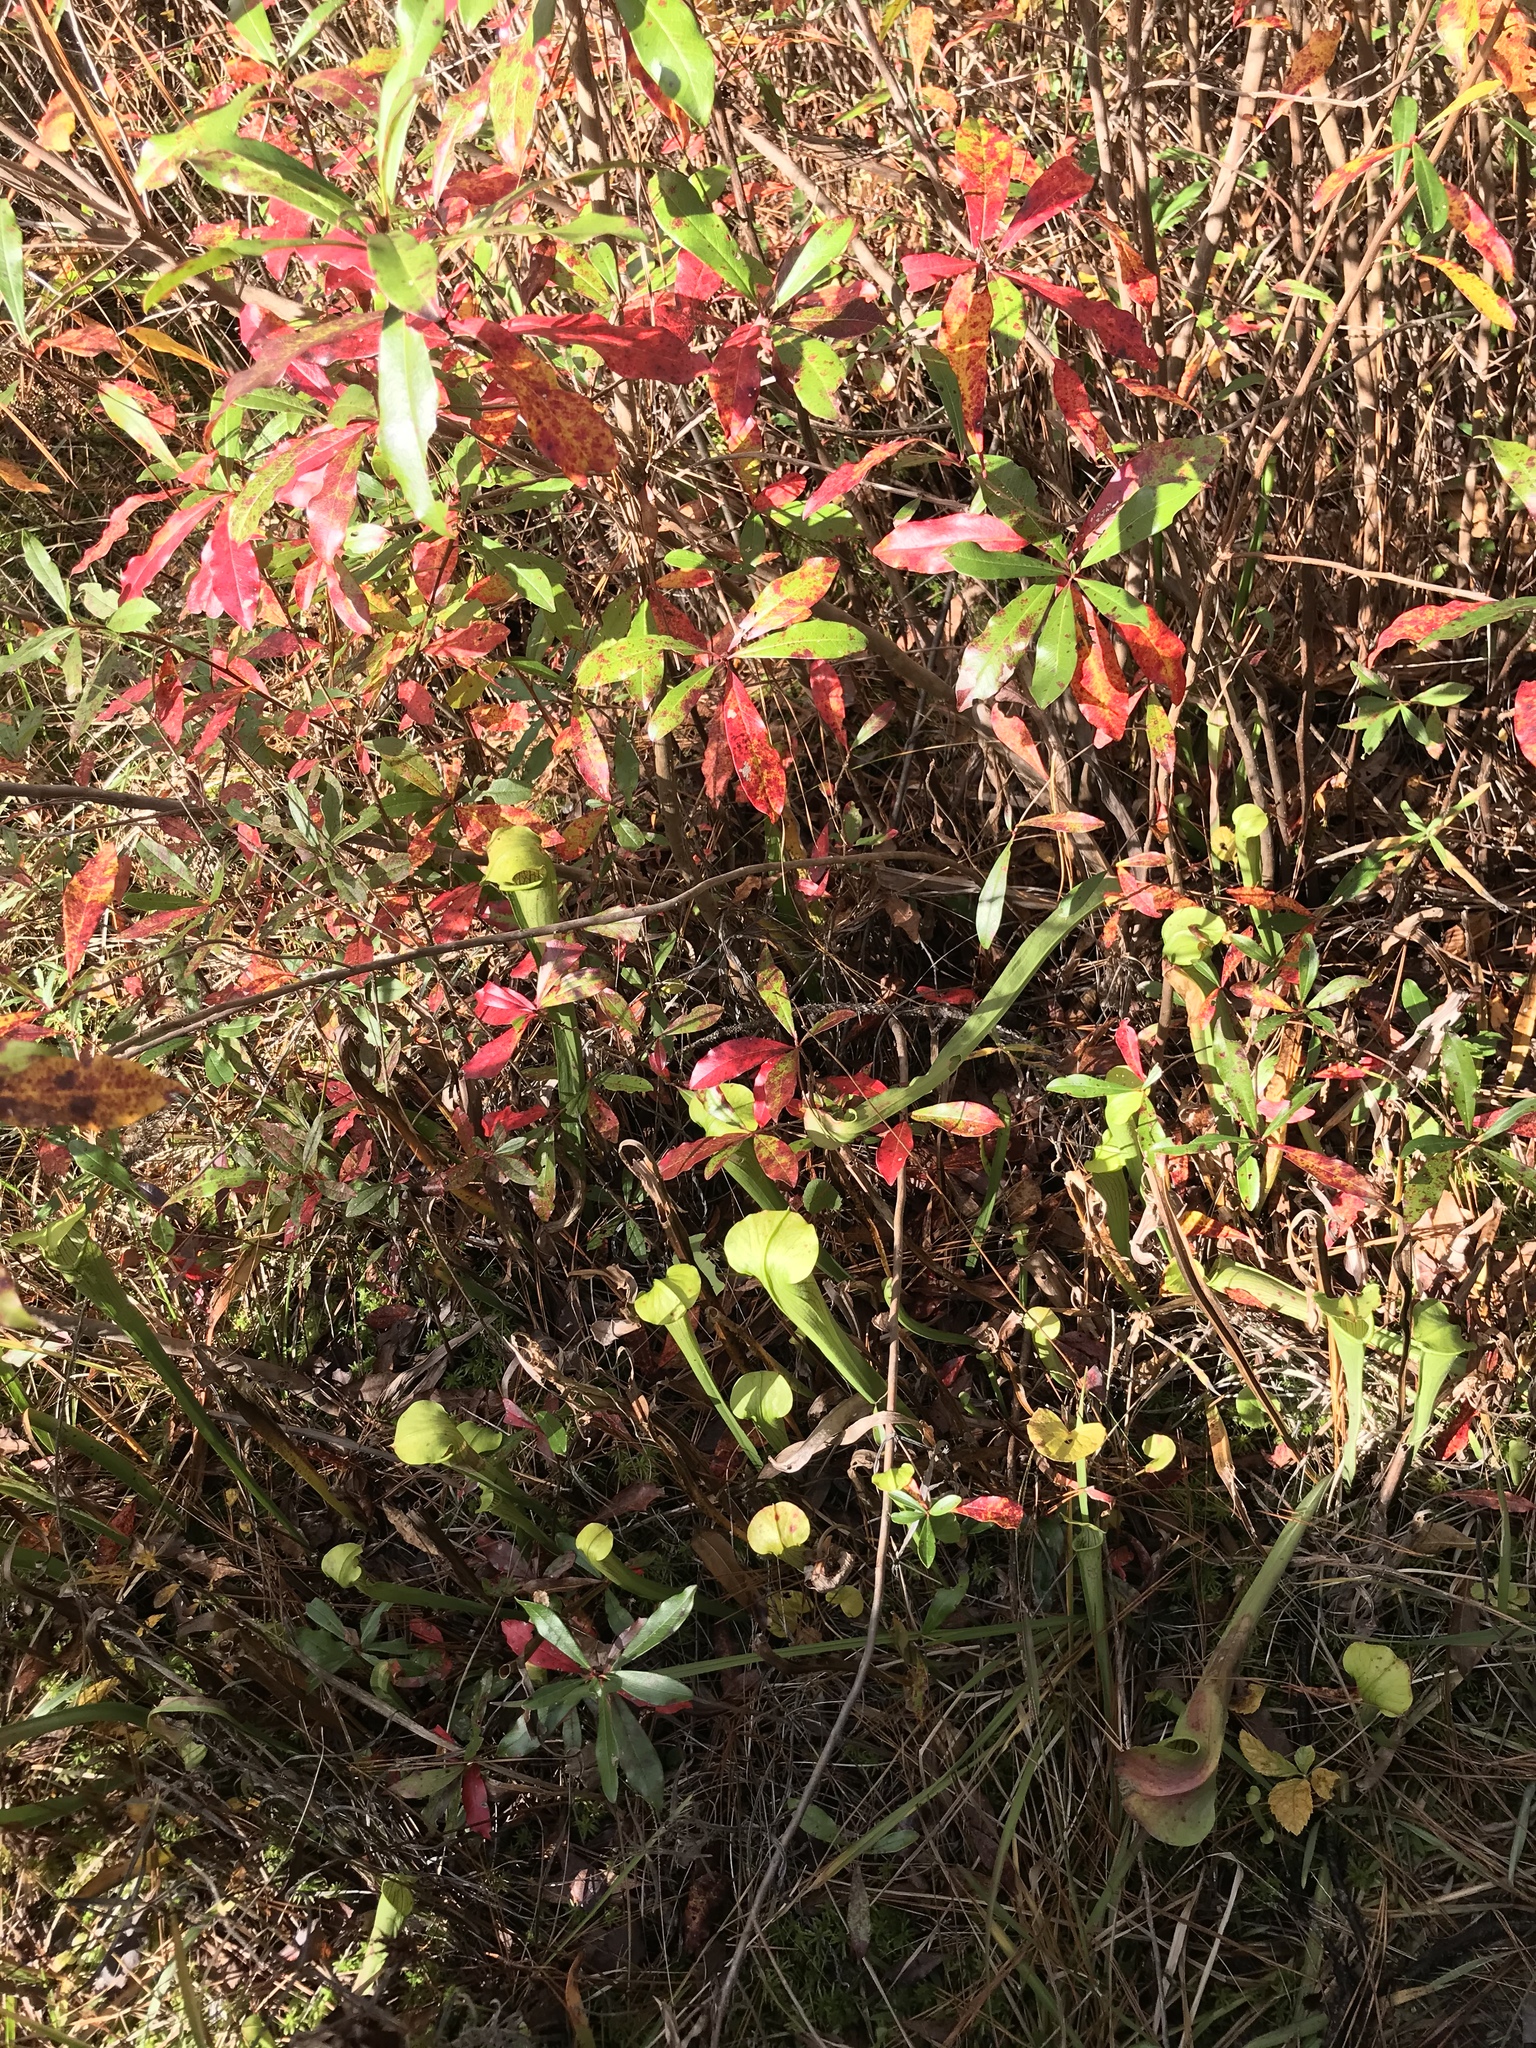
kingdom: Plantae
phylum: Tracheophyta
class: Magnoliopsida
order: Ericales
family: Sarraceniaceae
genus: Sarracenia
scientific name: Sarracenia alata
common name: Yellow trumpets
